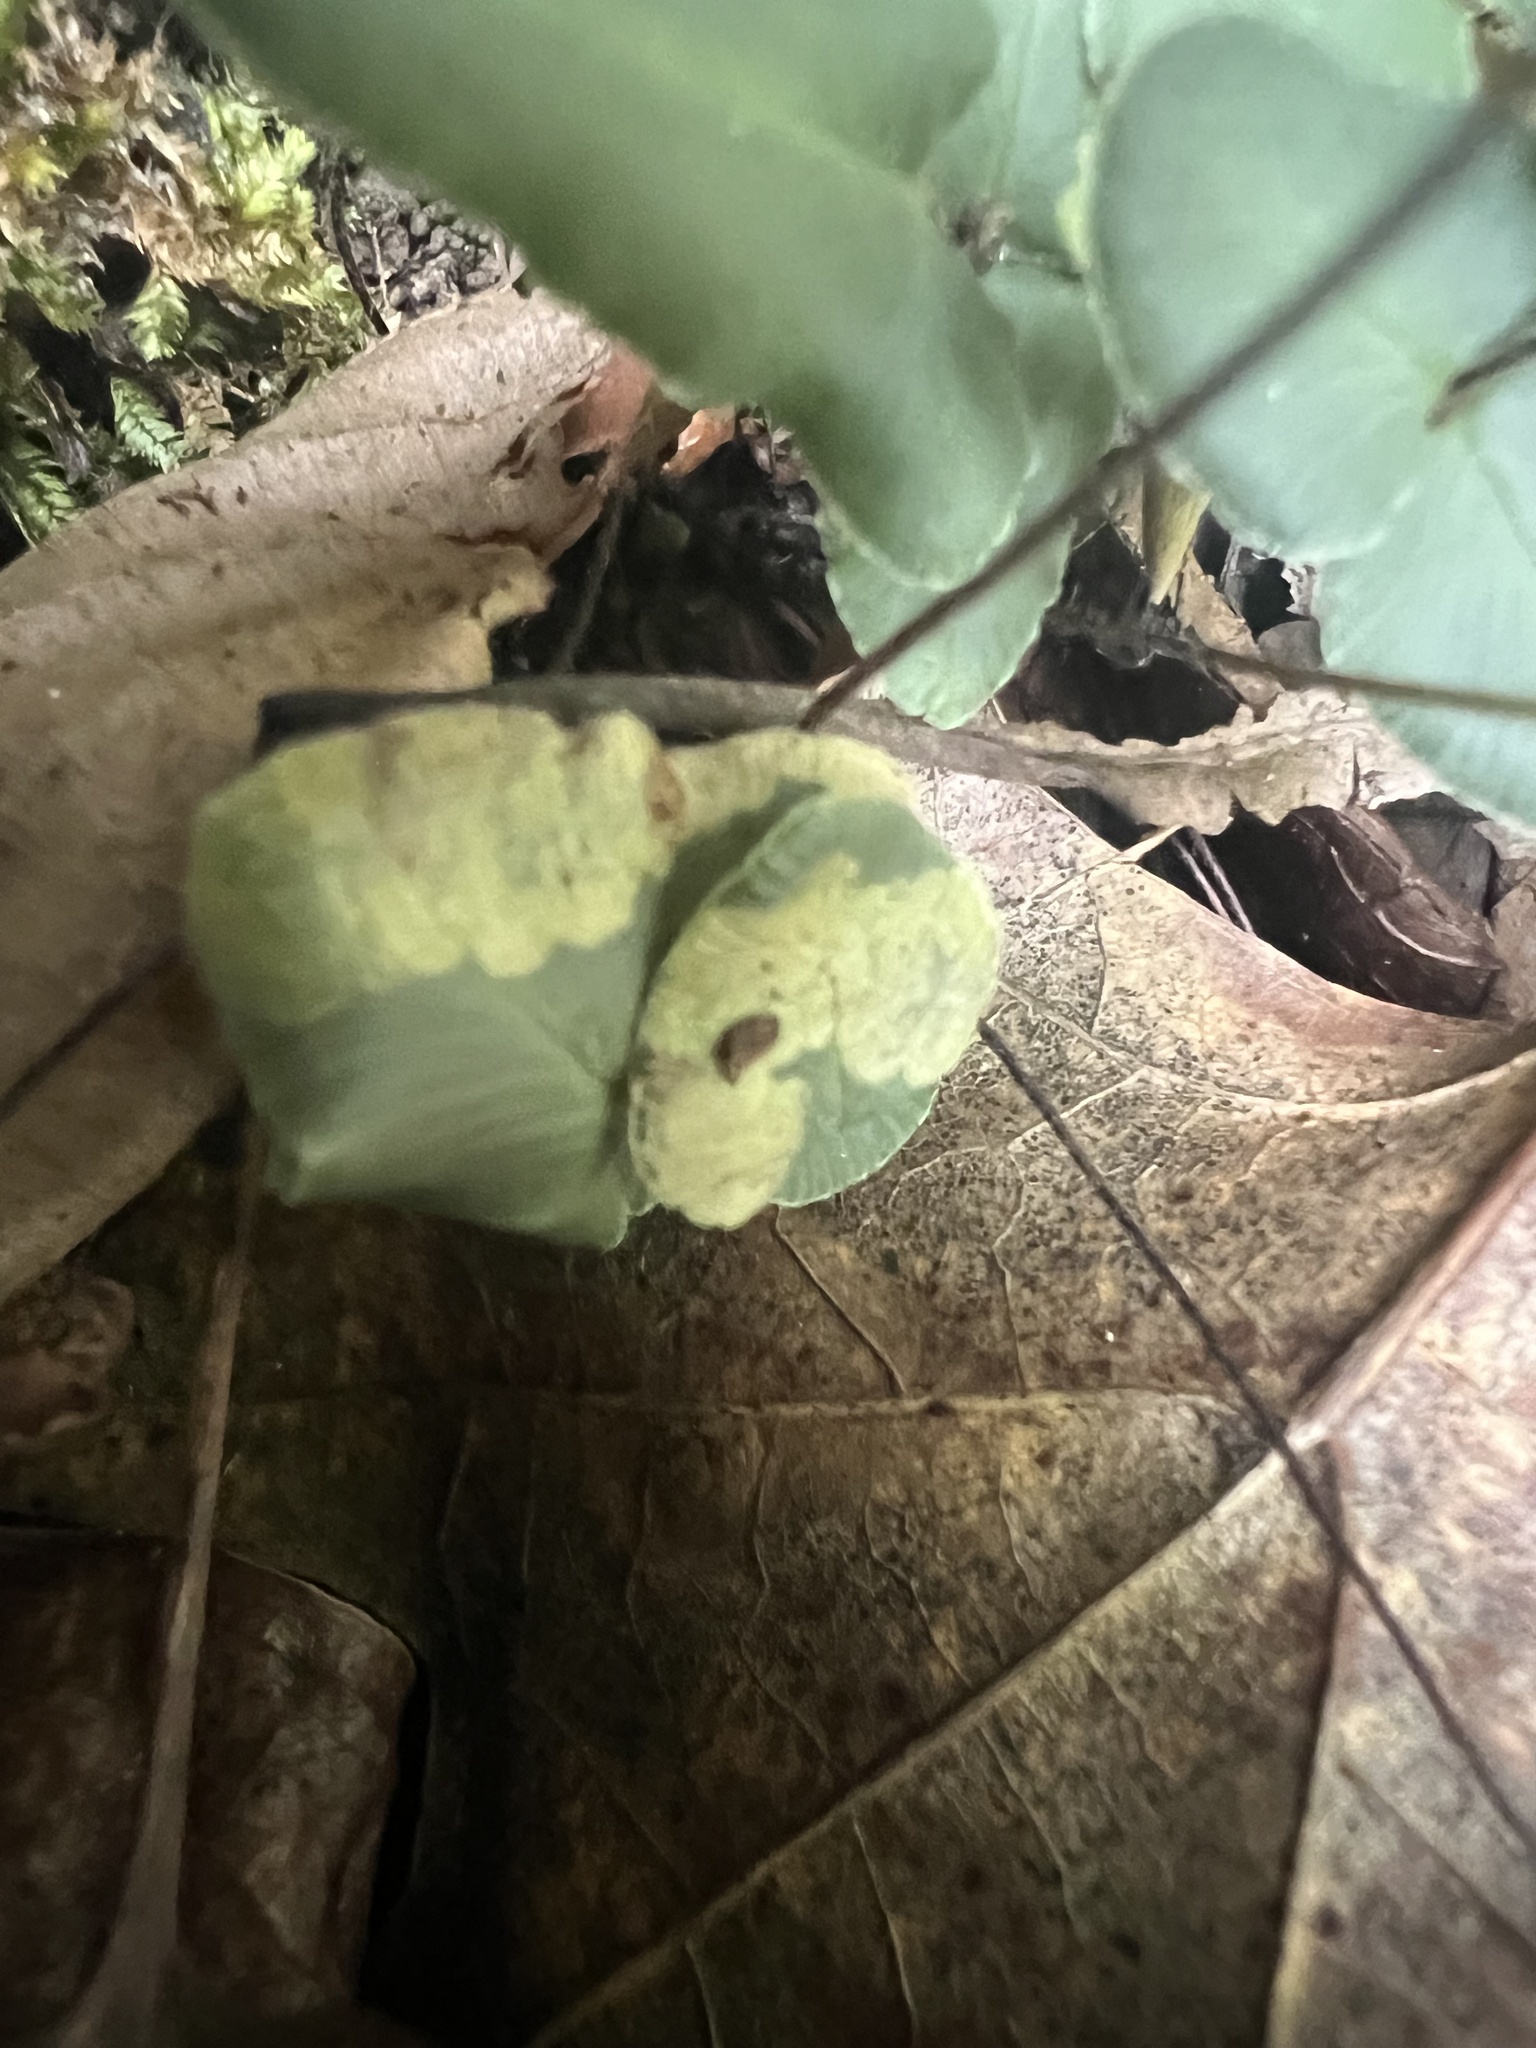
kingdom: Animalia
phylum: Arthropoda
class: Insecta
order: Diptera
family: Agromyzidae
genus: Phytoliriomyza
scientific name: Phytoliriomyza felti
